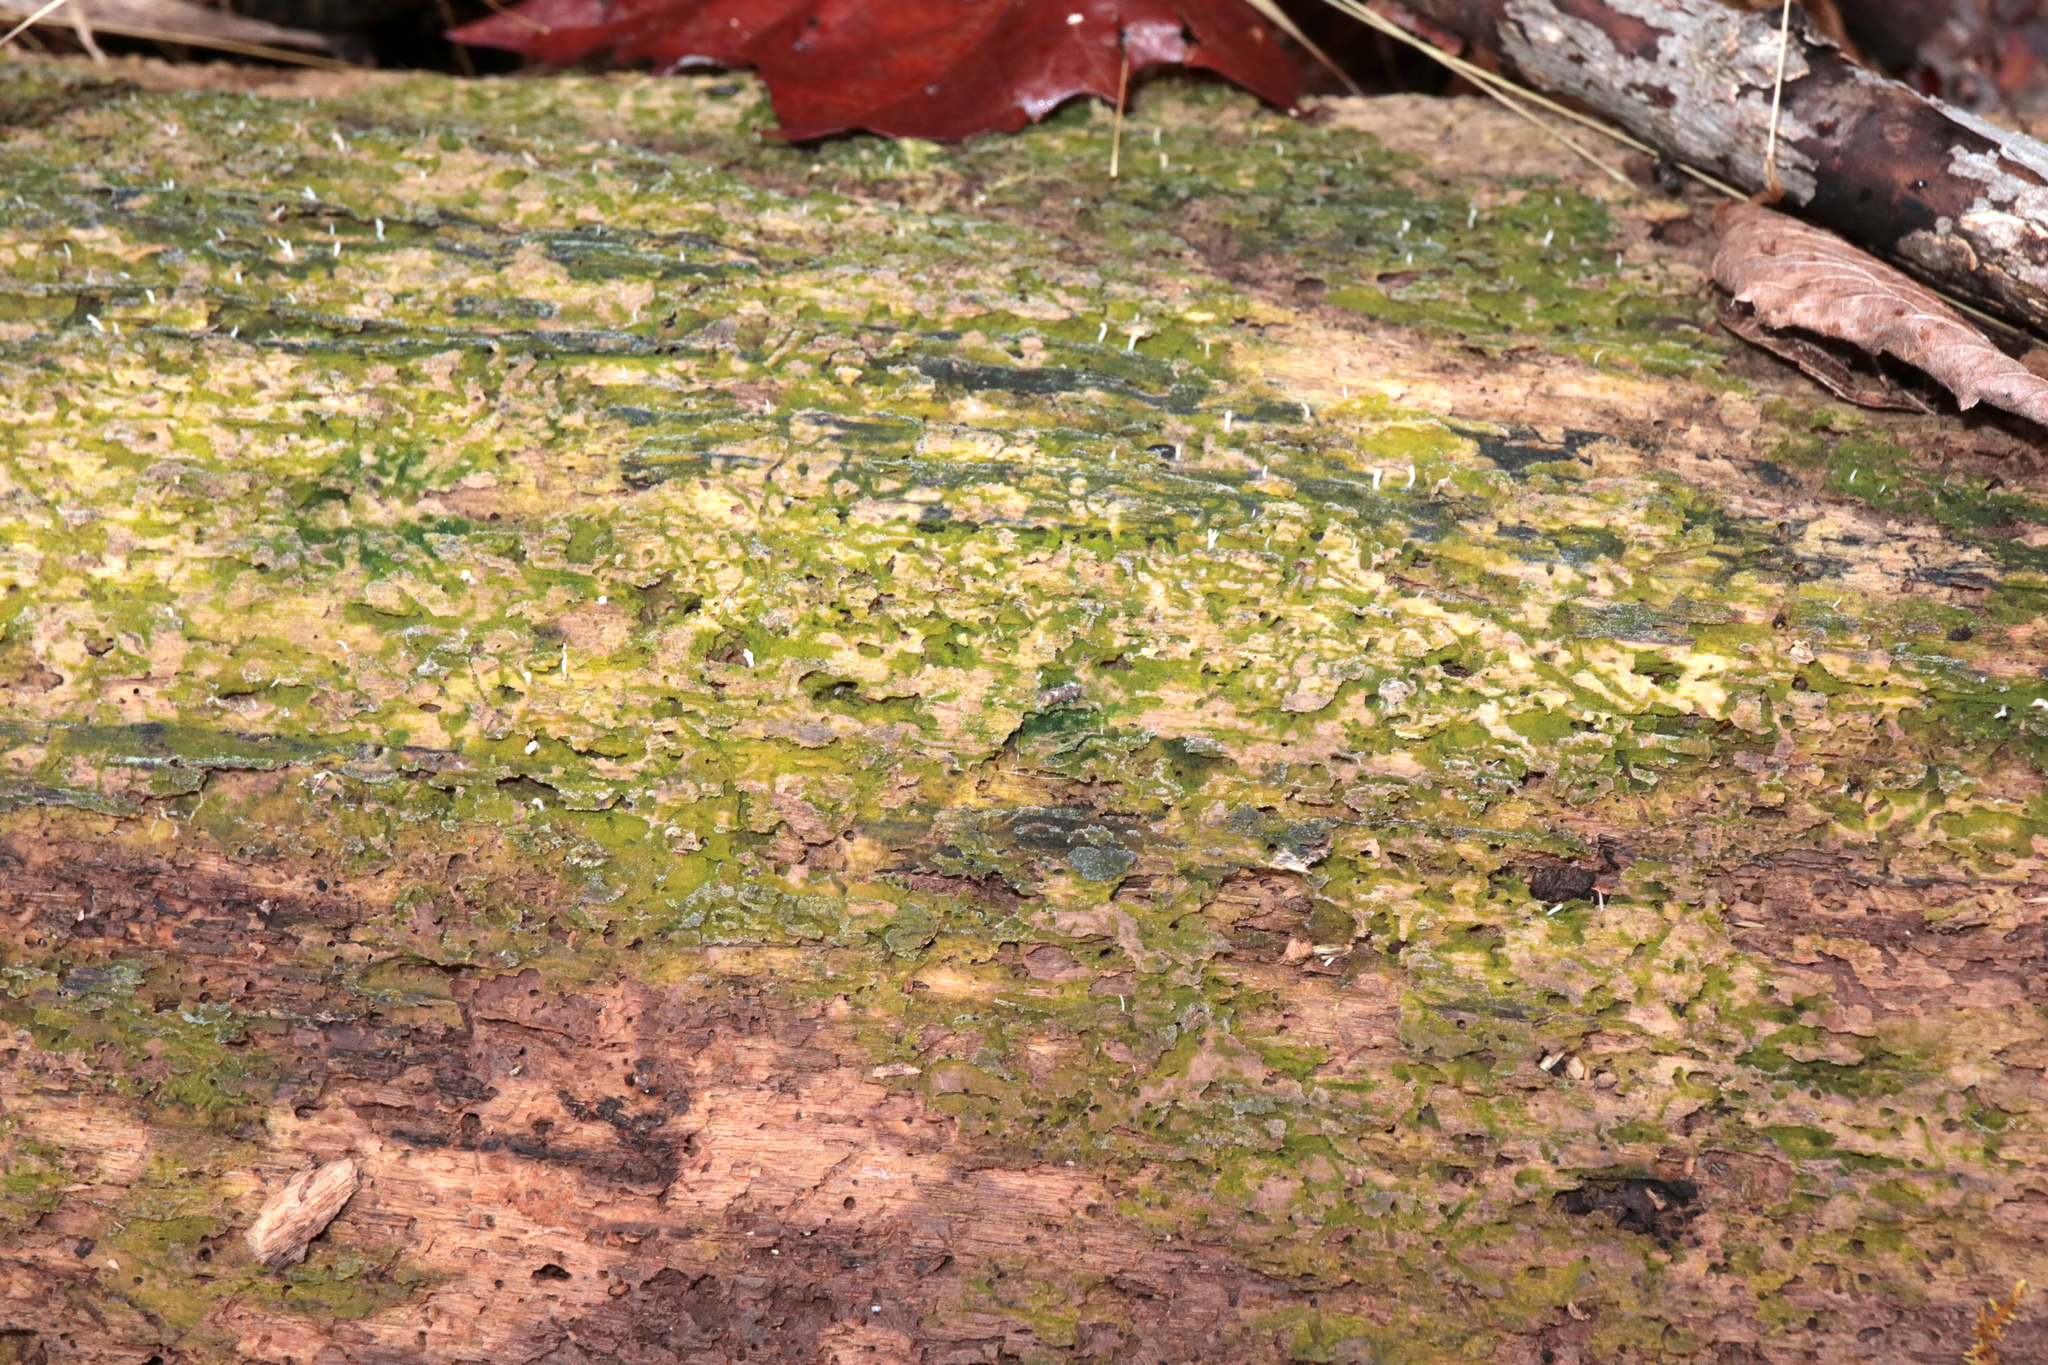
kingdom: Fungi
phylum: Basidiomycota
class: Agaricomycetes
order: Cantharellales
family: Hydnaceae
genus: Multiclavula
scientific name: Multiclavula mucida
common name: White green-algae coral
